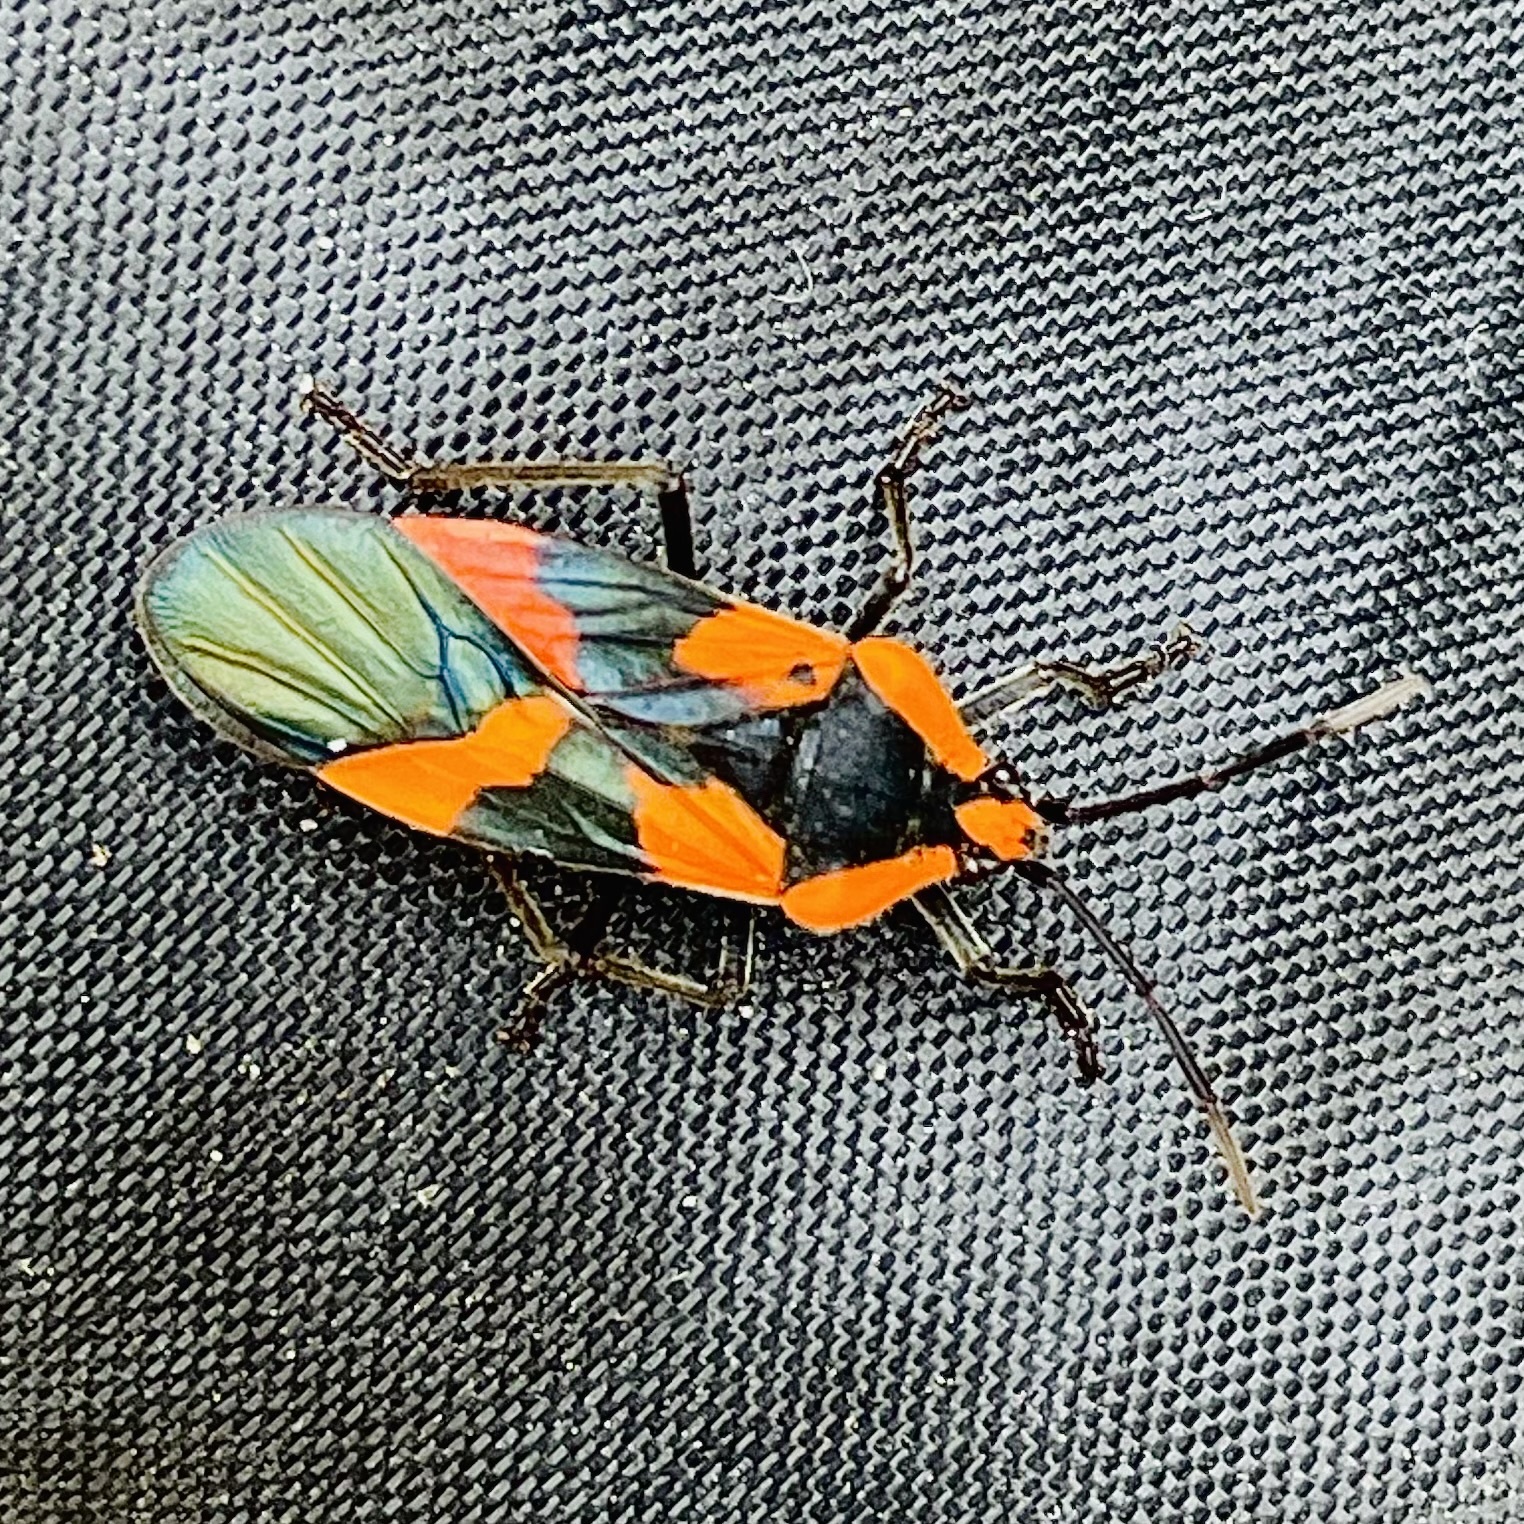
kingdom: Animalia
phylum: Arthropoda
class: Insecta
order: Hemiptera
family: Lygaeidae
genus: Oncopeltus
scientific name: Oncopeltus miles
